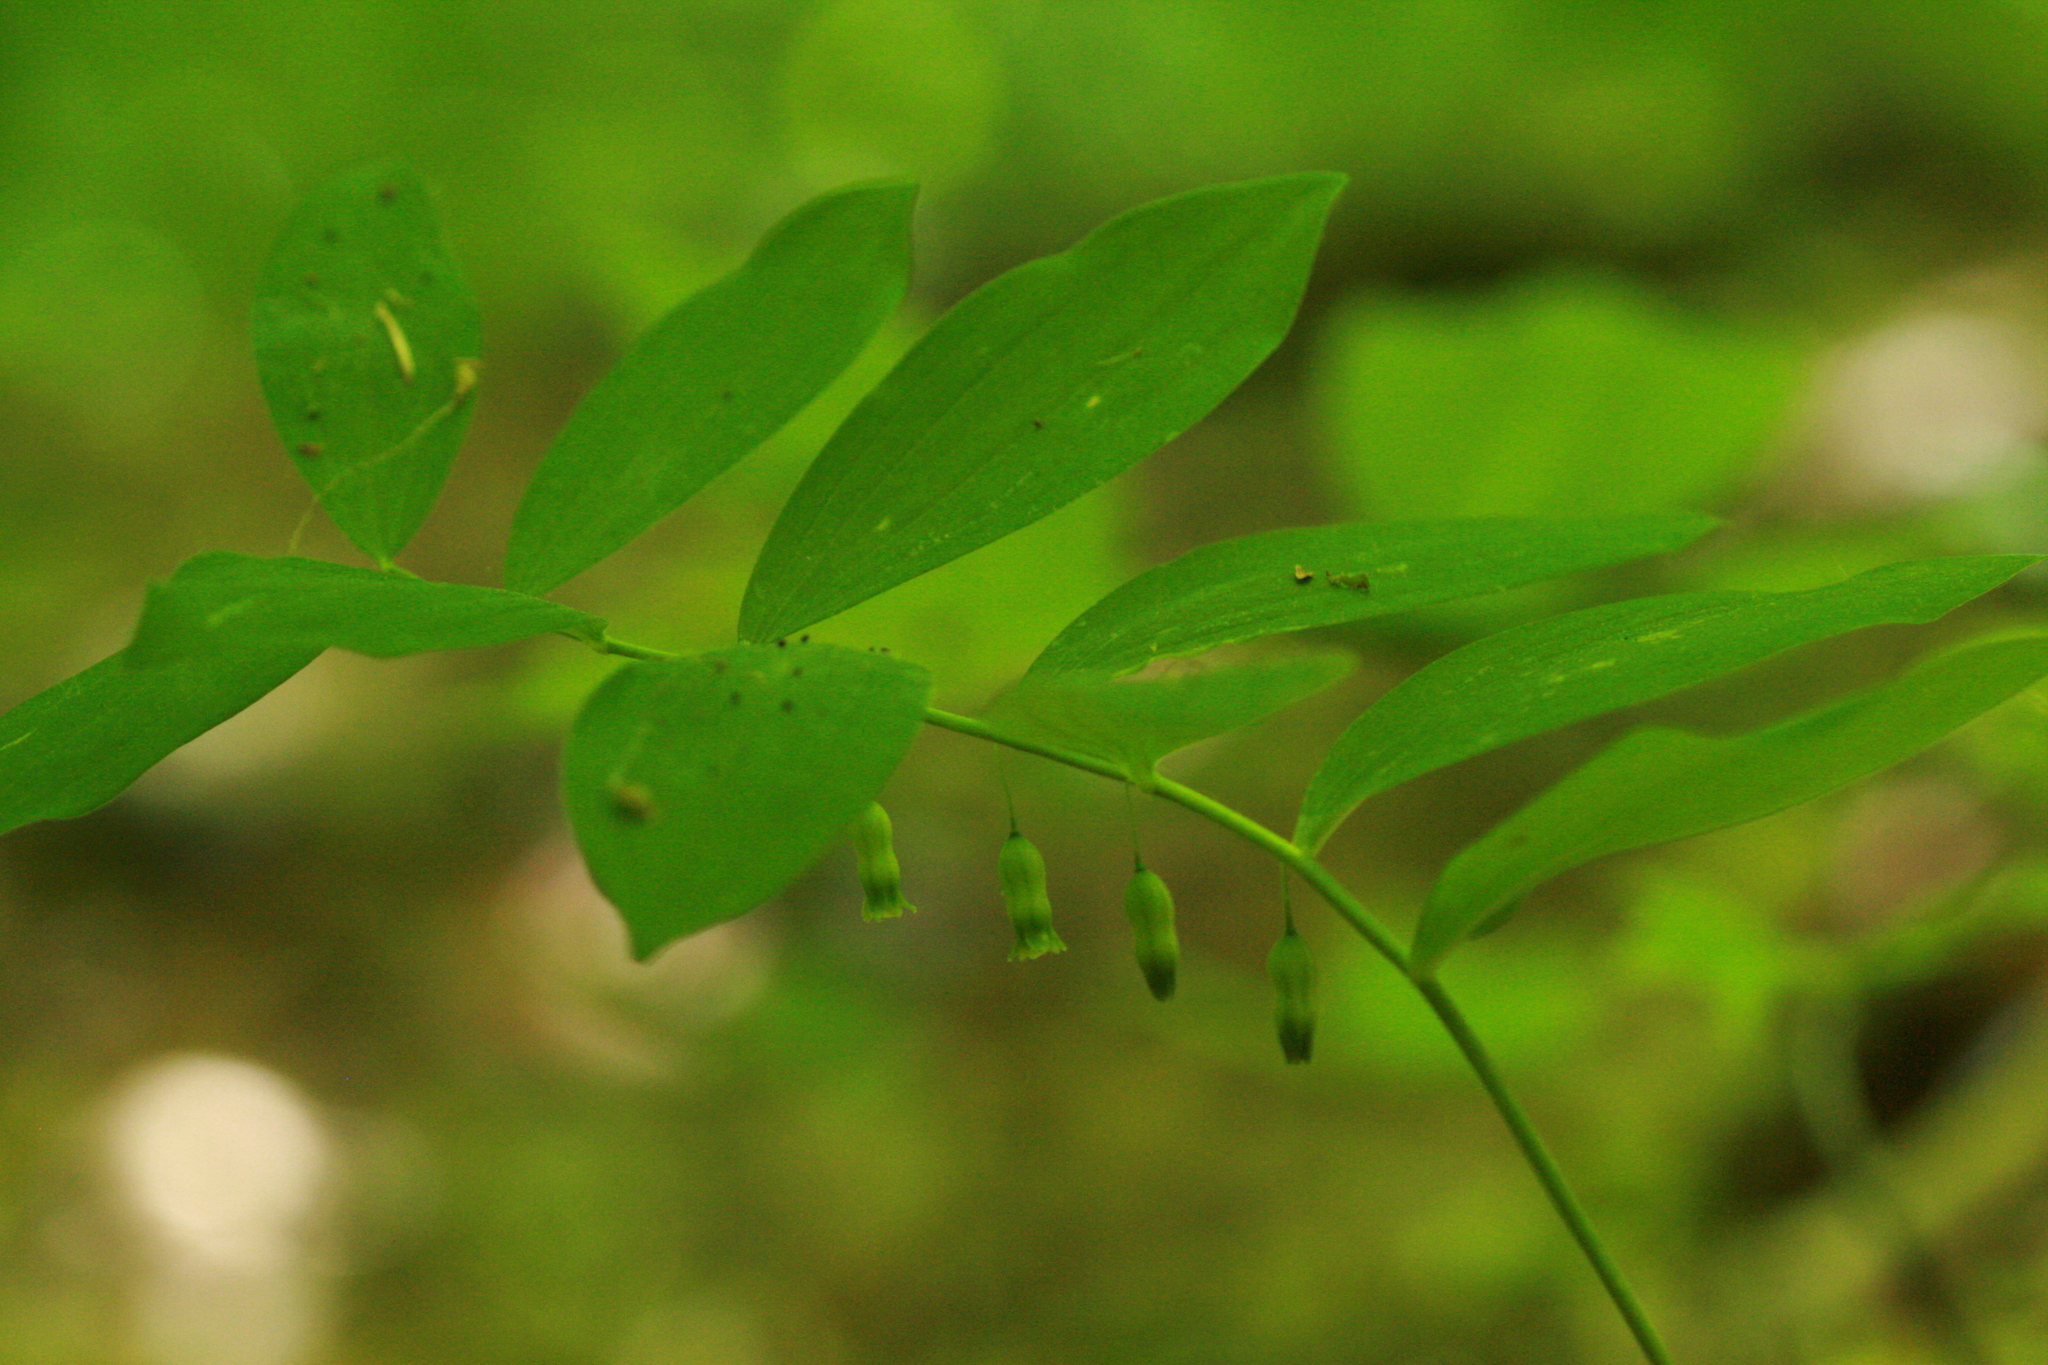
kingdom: Plantae
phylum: Tracheophyta
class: Liliopsida
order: Asparagales
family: Asparagaceae
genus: Polygonatum
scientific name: Polygonatum pubescens
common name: Downy solomon's seal
